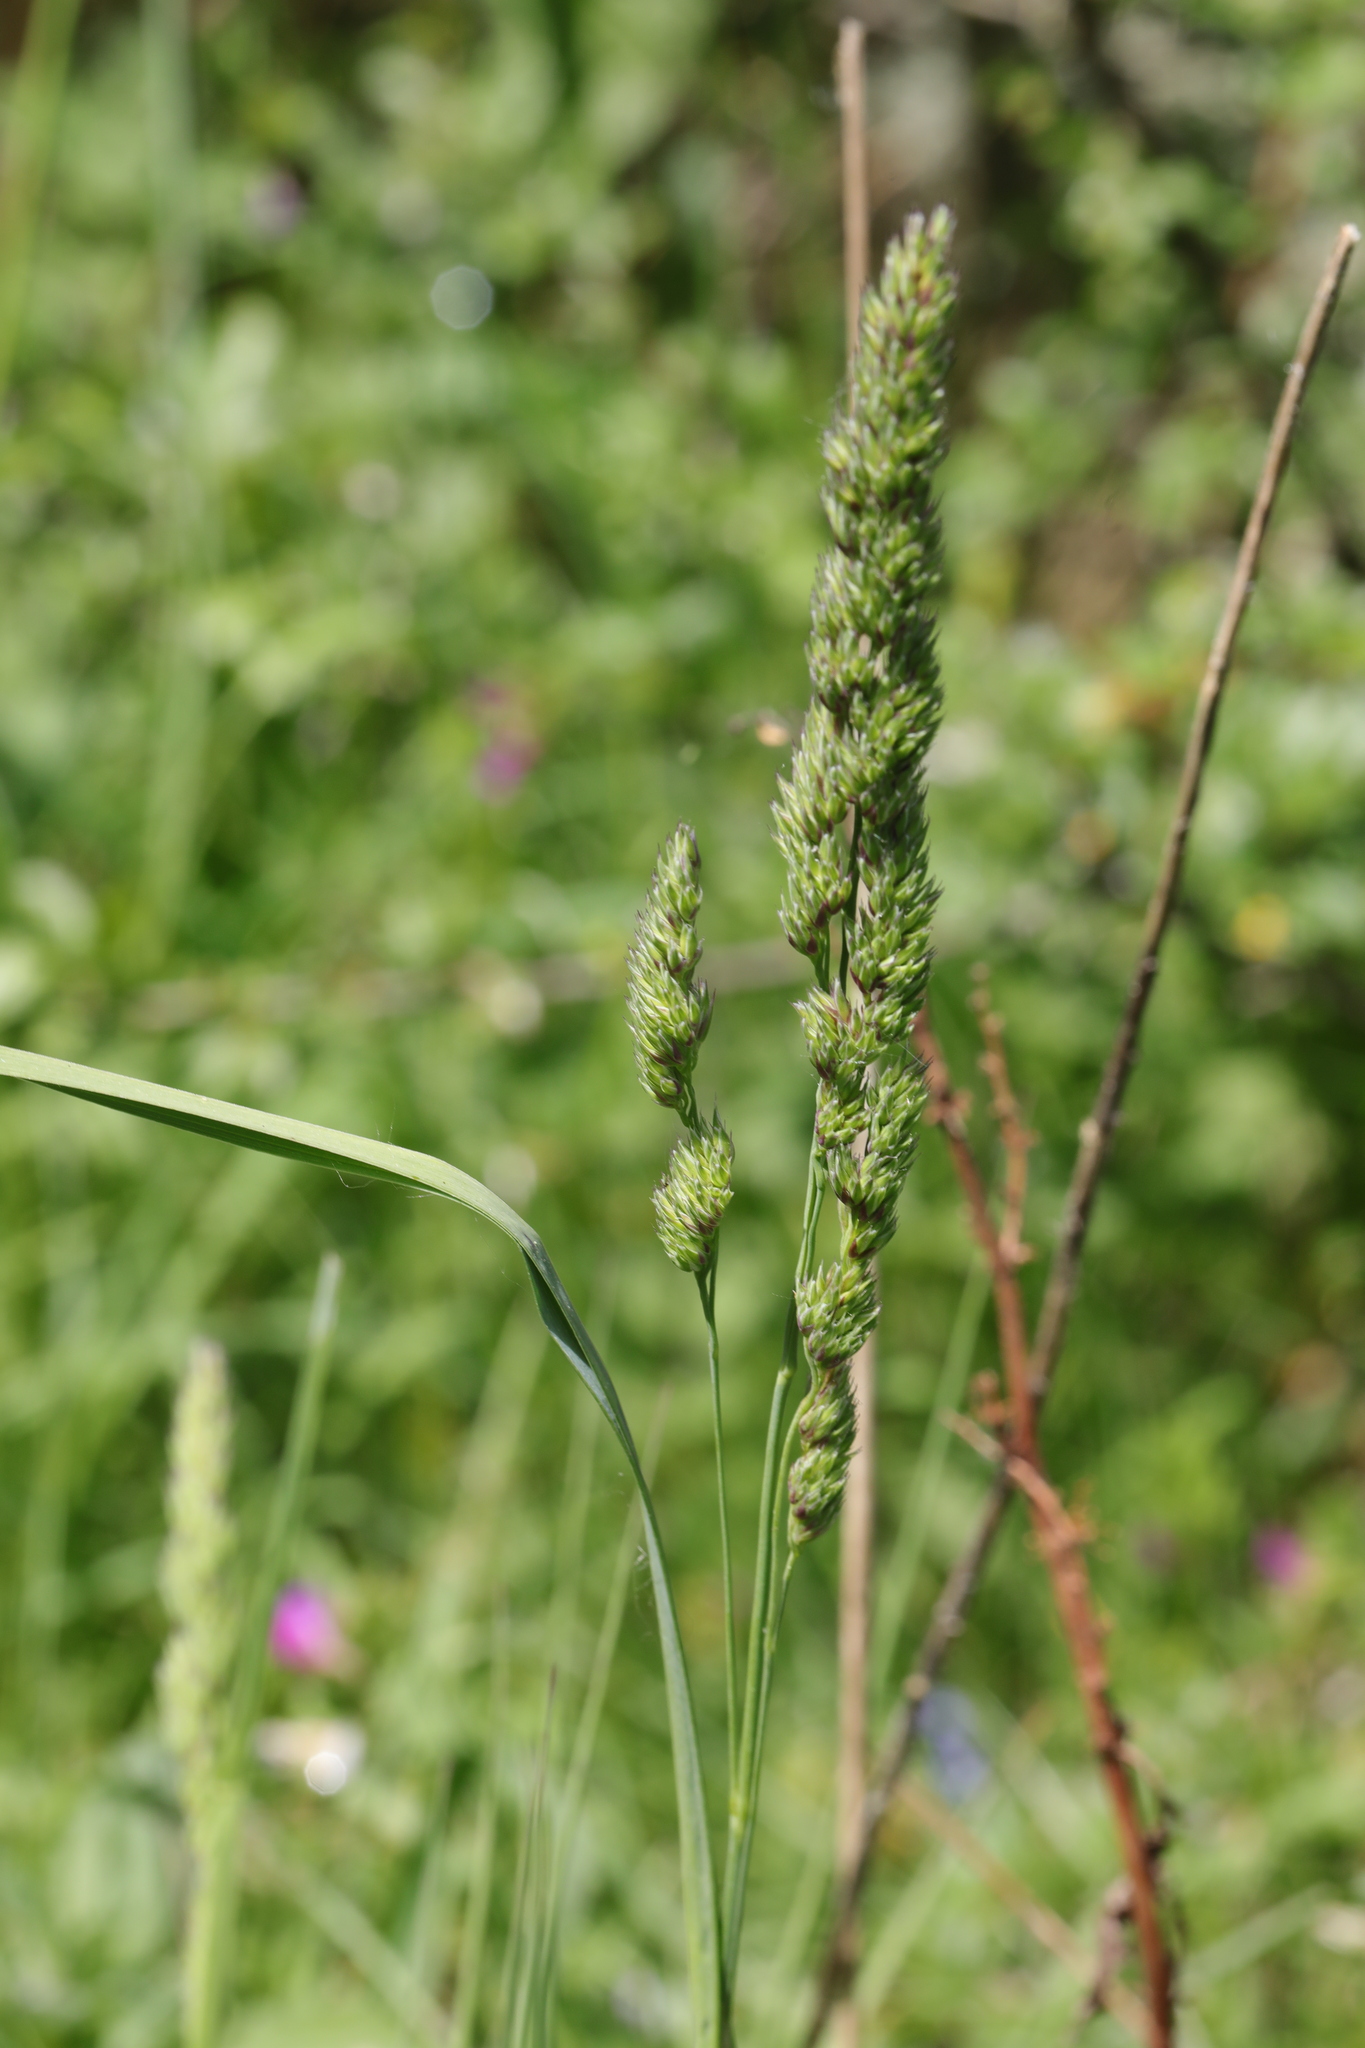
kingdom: Plantae
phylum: Tracheophyta
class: Liliopsida
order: Poales
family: Poaceae
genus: Dactylis
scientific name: Dactylis glomerata
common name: Orchardgrass
